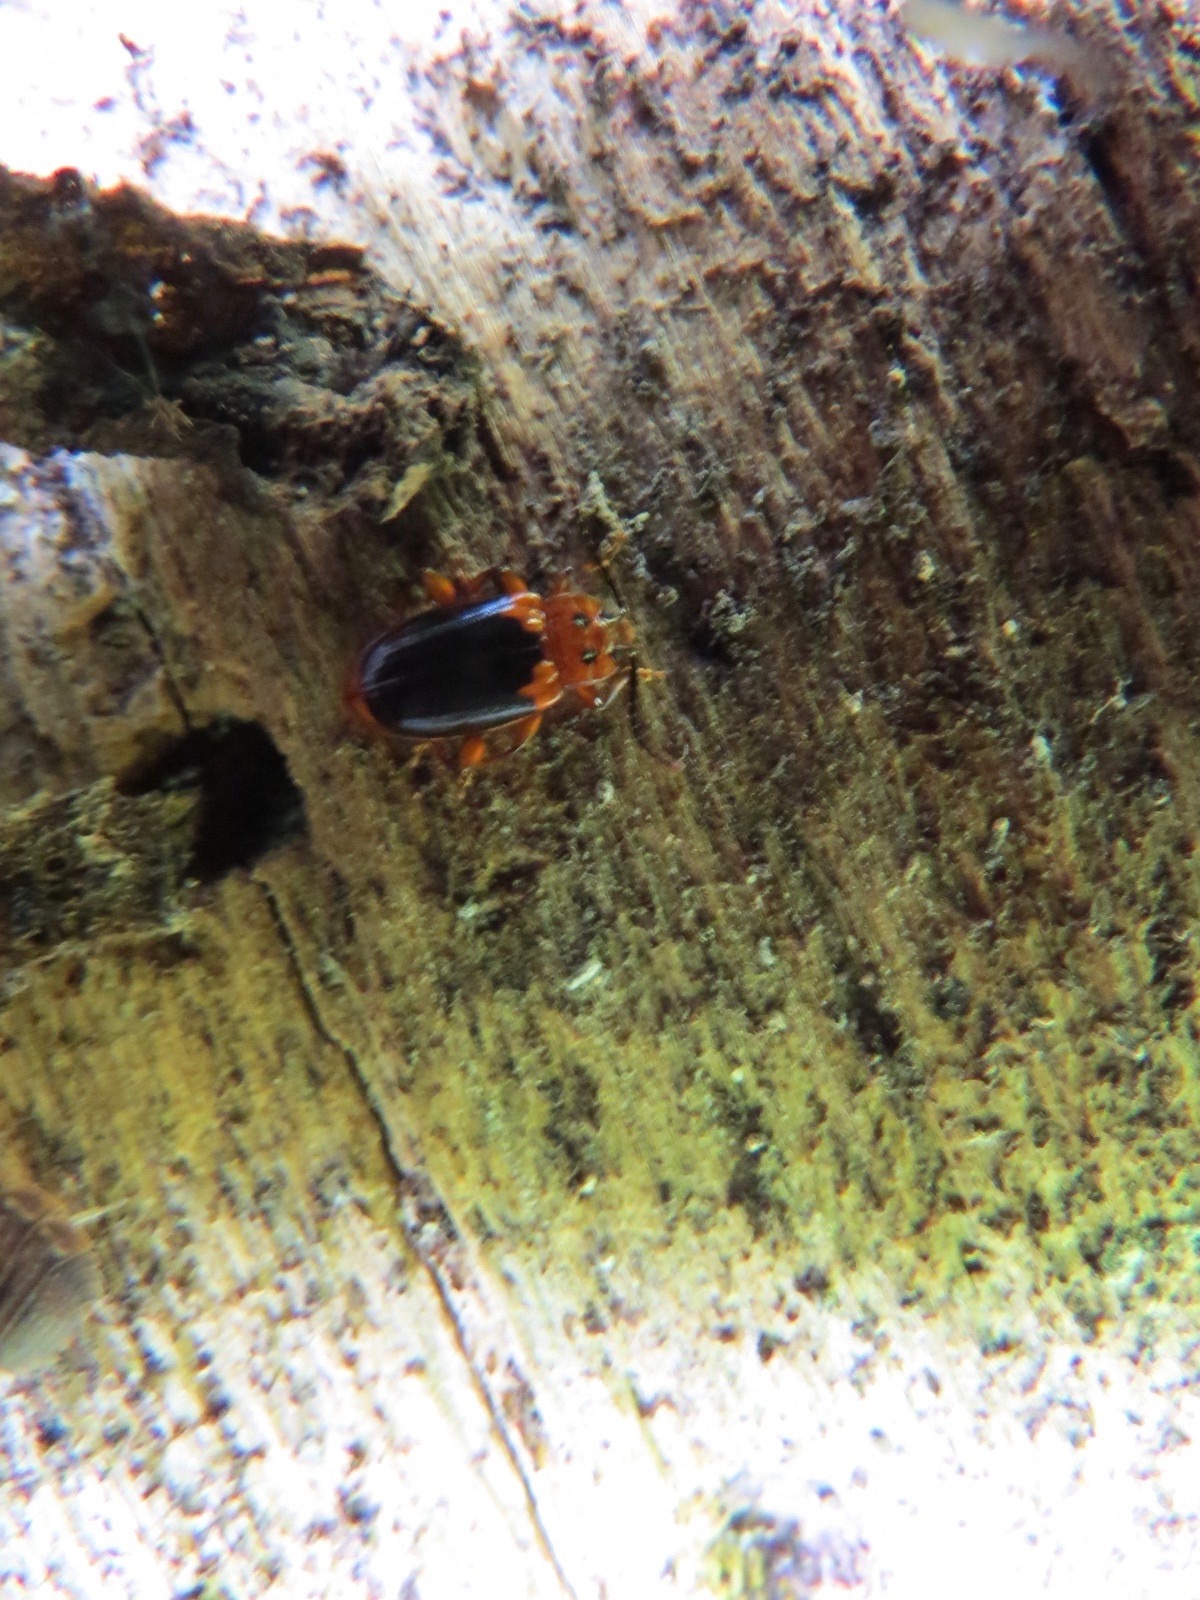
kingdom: Animalia
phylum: Arthropoda
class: Insecta
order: Coleoptera
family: Endomychidae
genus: Aphorista
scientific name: Aphorista laeta
